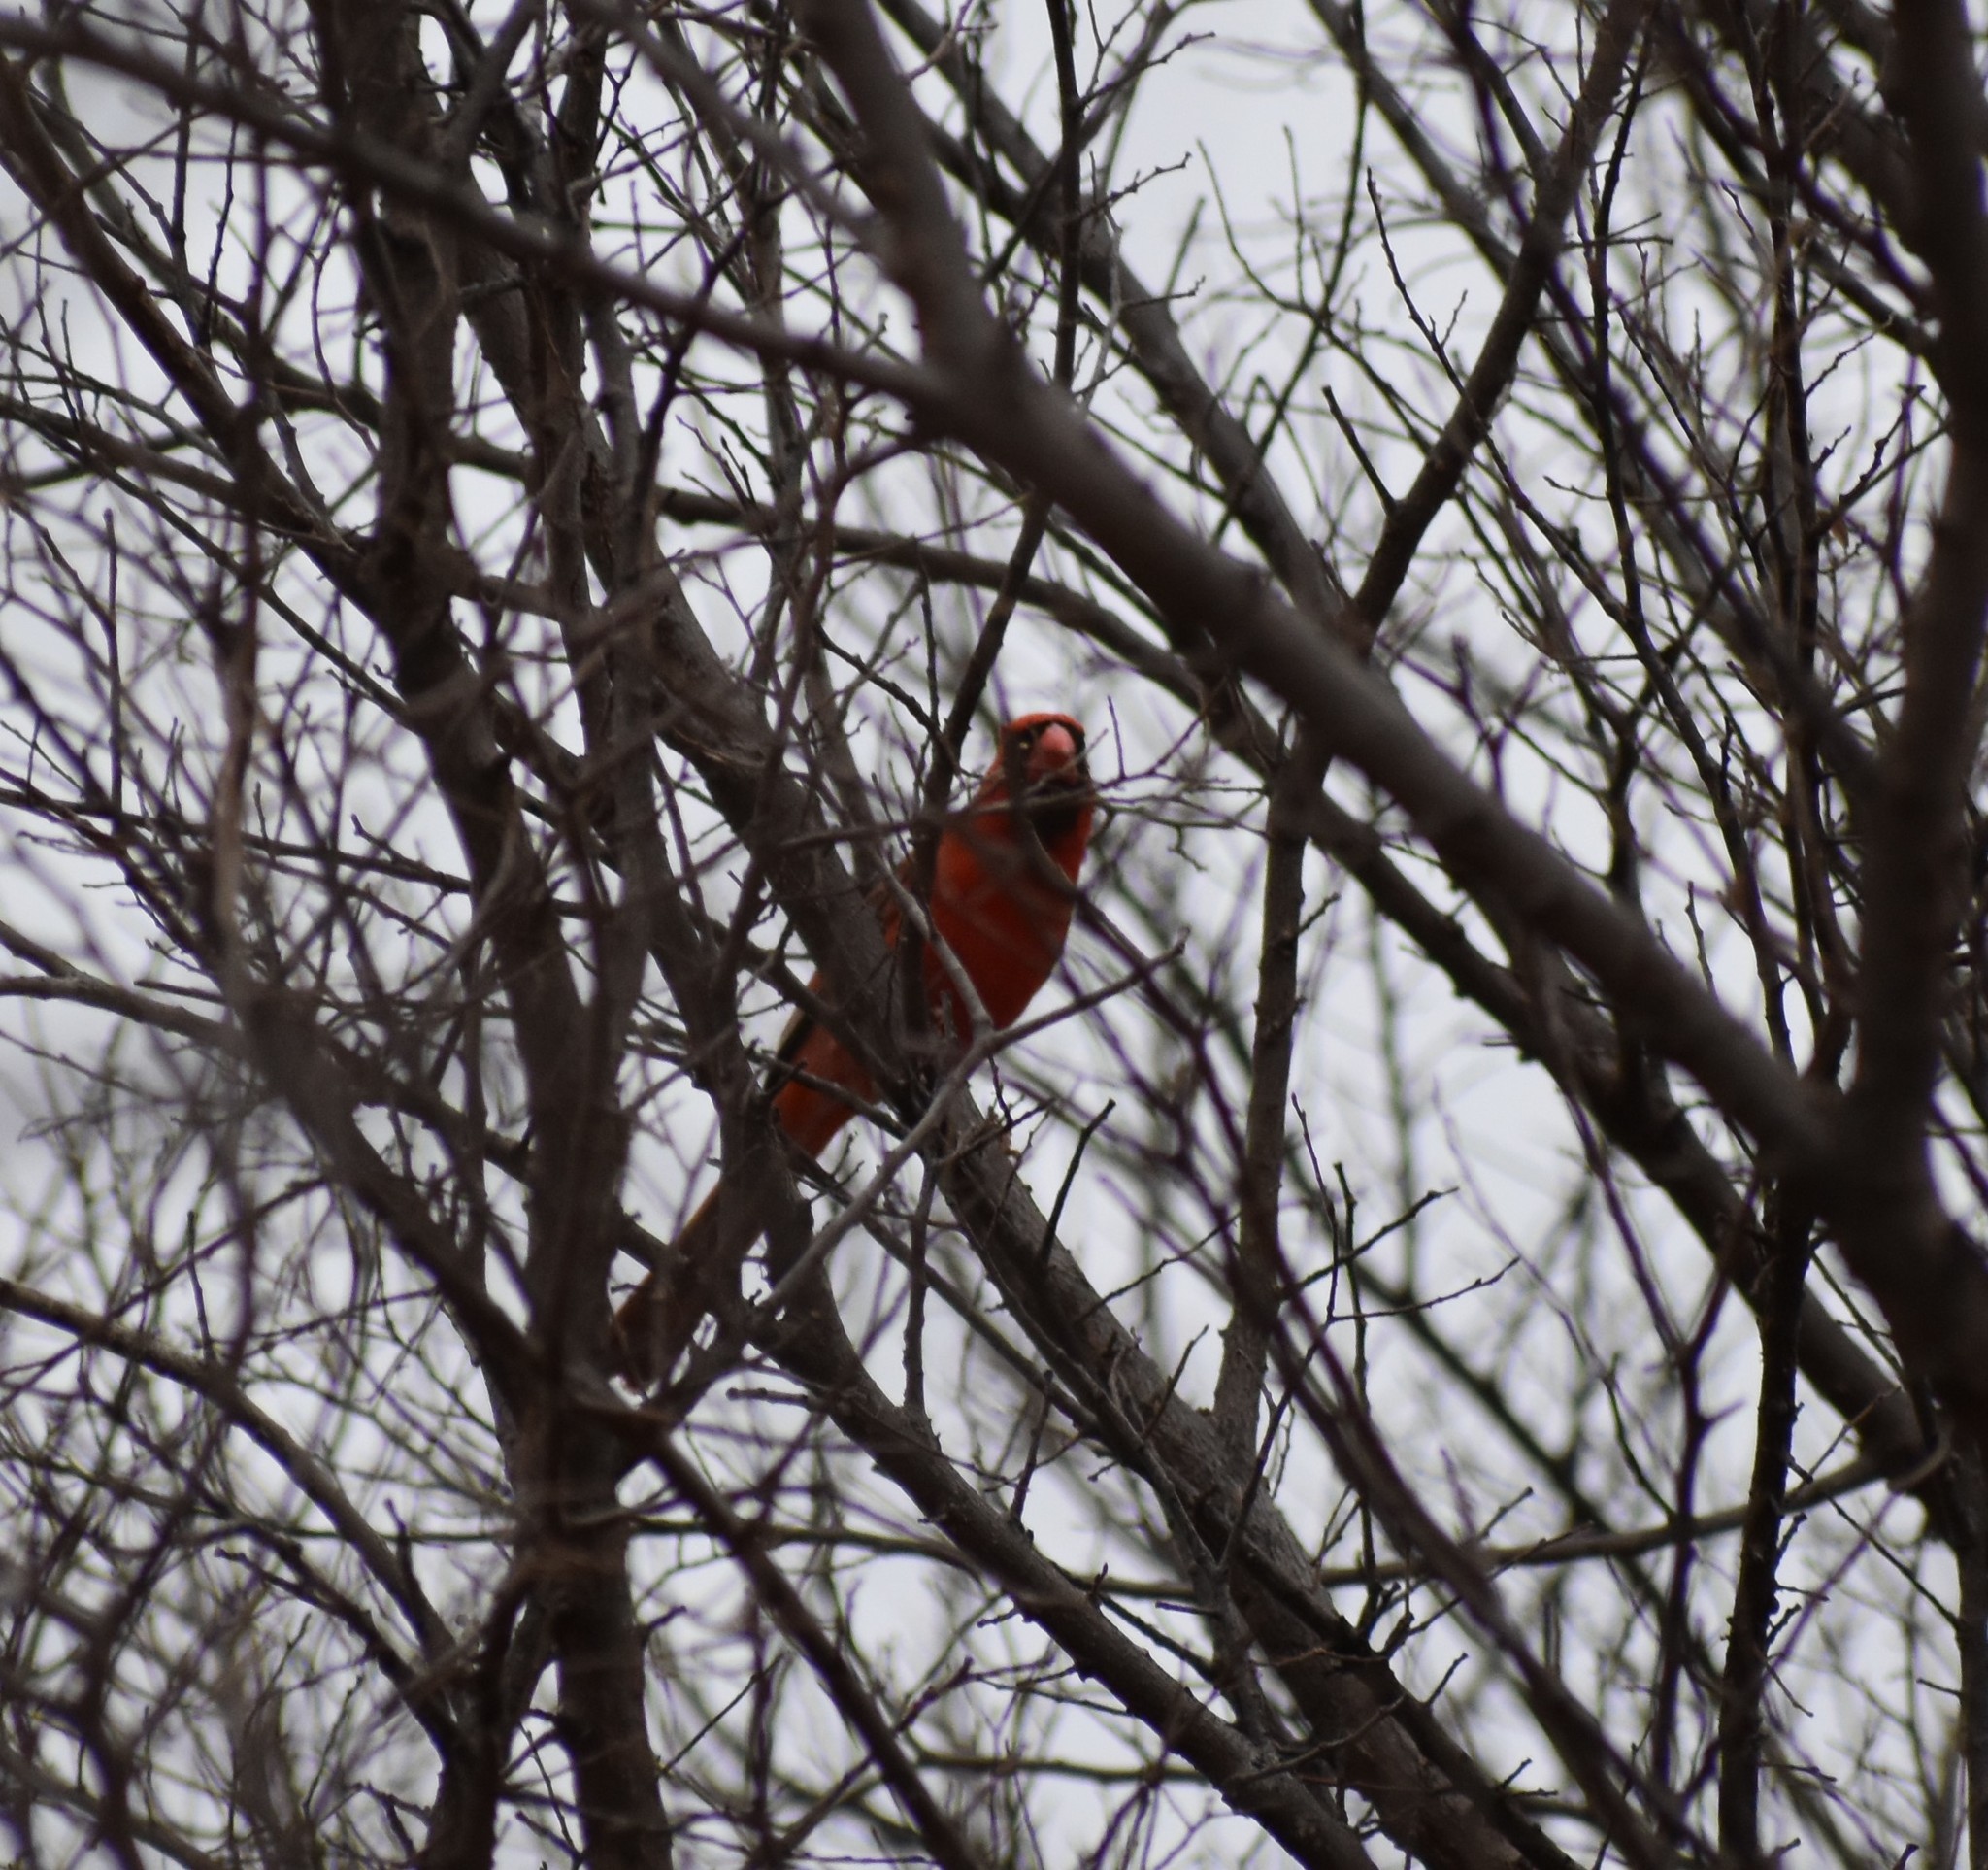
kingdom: Animalia
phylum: Chordata
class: Aves
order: Passeriformes
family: Cardinalidae
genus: Cardinalis
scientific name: Cardinalis cardinalis
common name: Northern cardinal
